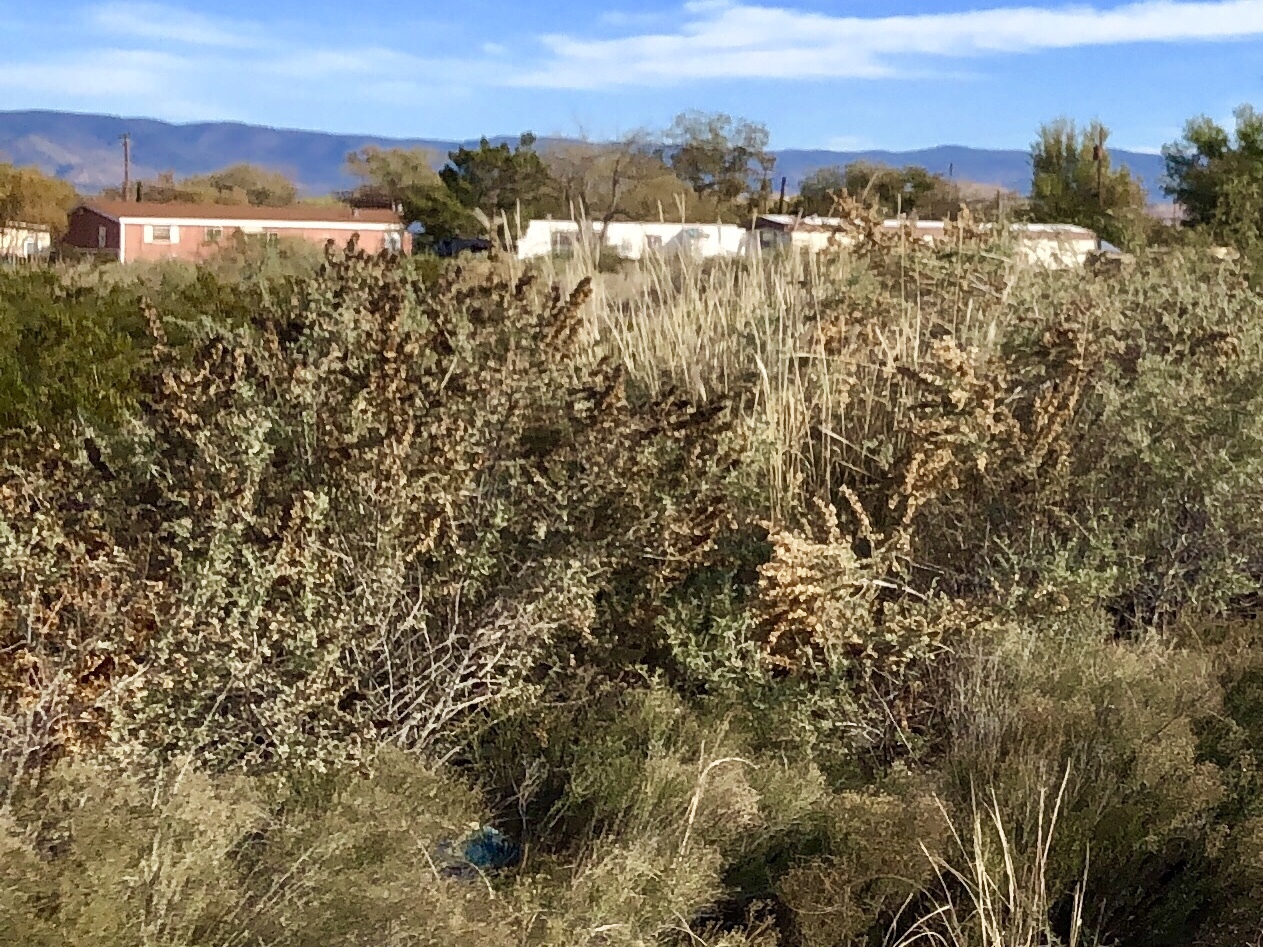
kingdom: Plantae
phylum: Tracheophyta
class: Magnoliopsida
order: Caryophyllales
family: Amaranthaceae
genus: Atriplex
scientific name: Atriplex canescens
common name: Four-wing saltbush
